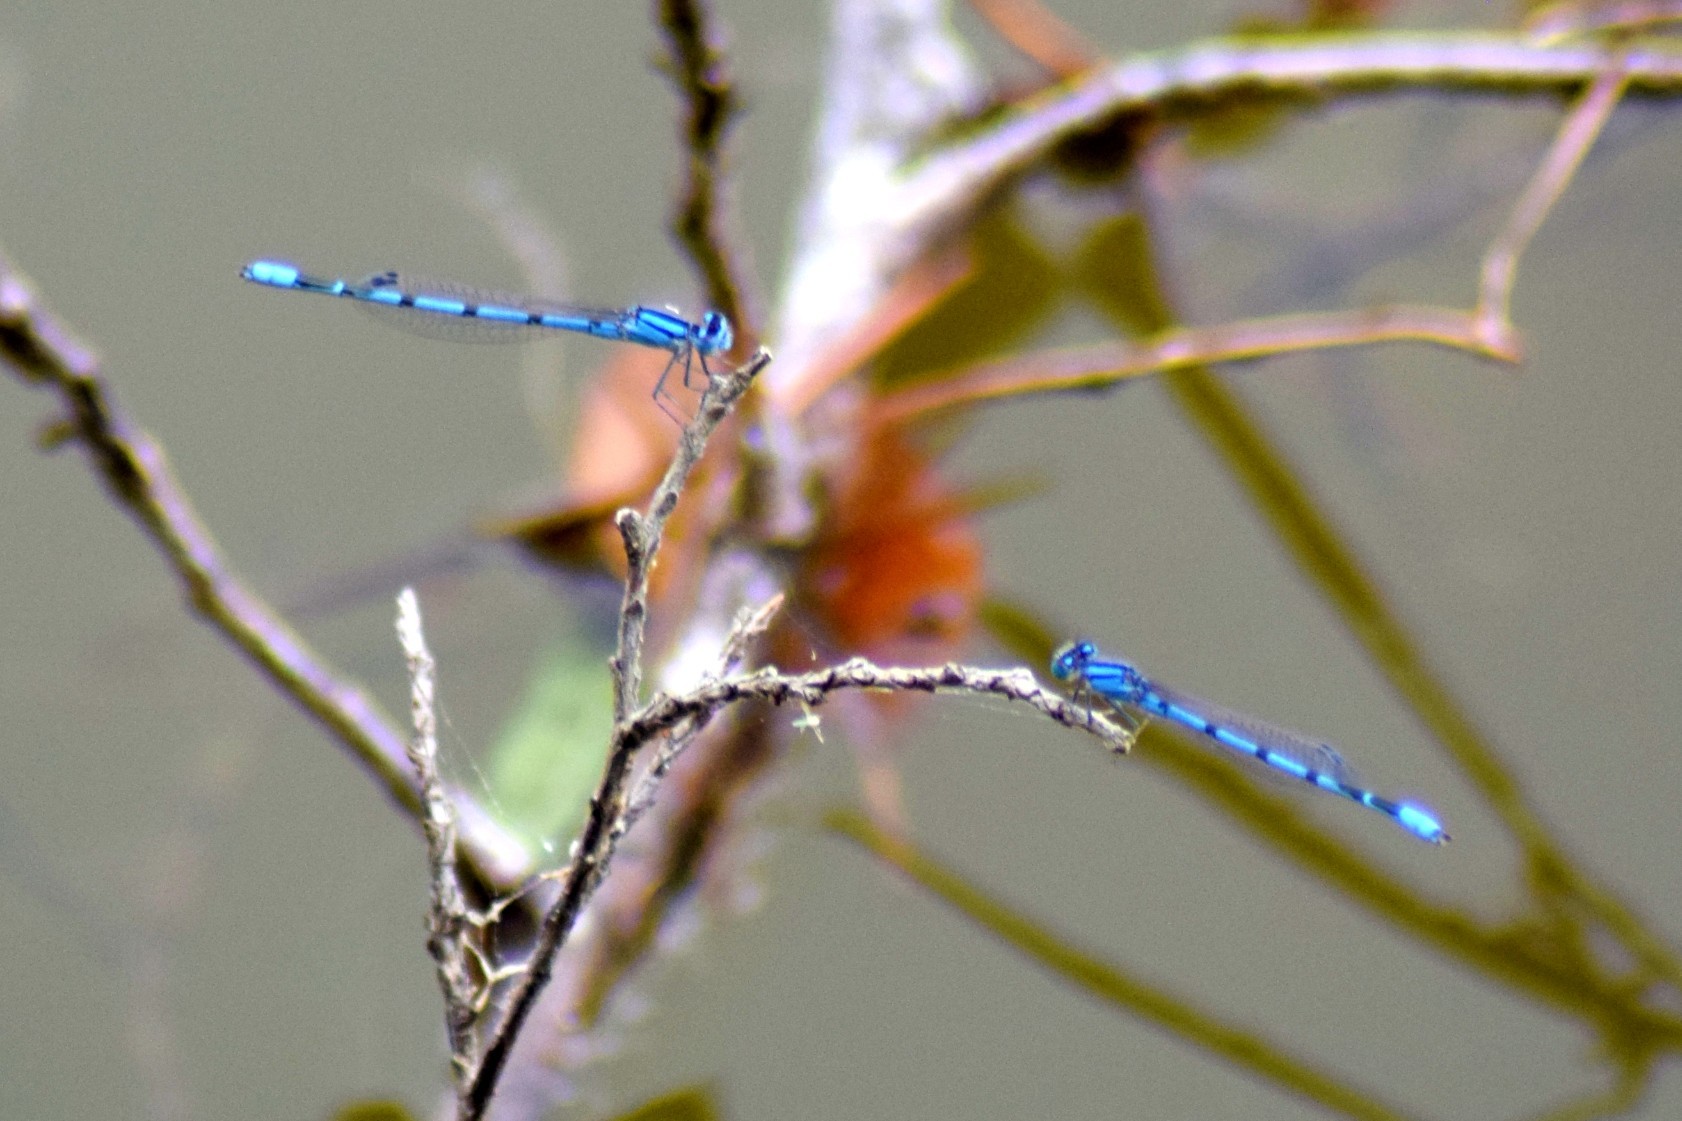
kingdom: Animalia
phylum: Arthropoda
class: Insecta
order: Odonata
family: Coenagrionidae
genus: Enallagma
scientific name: Enallagma
